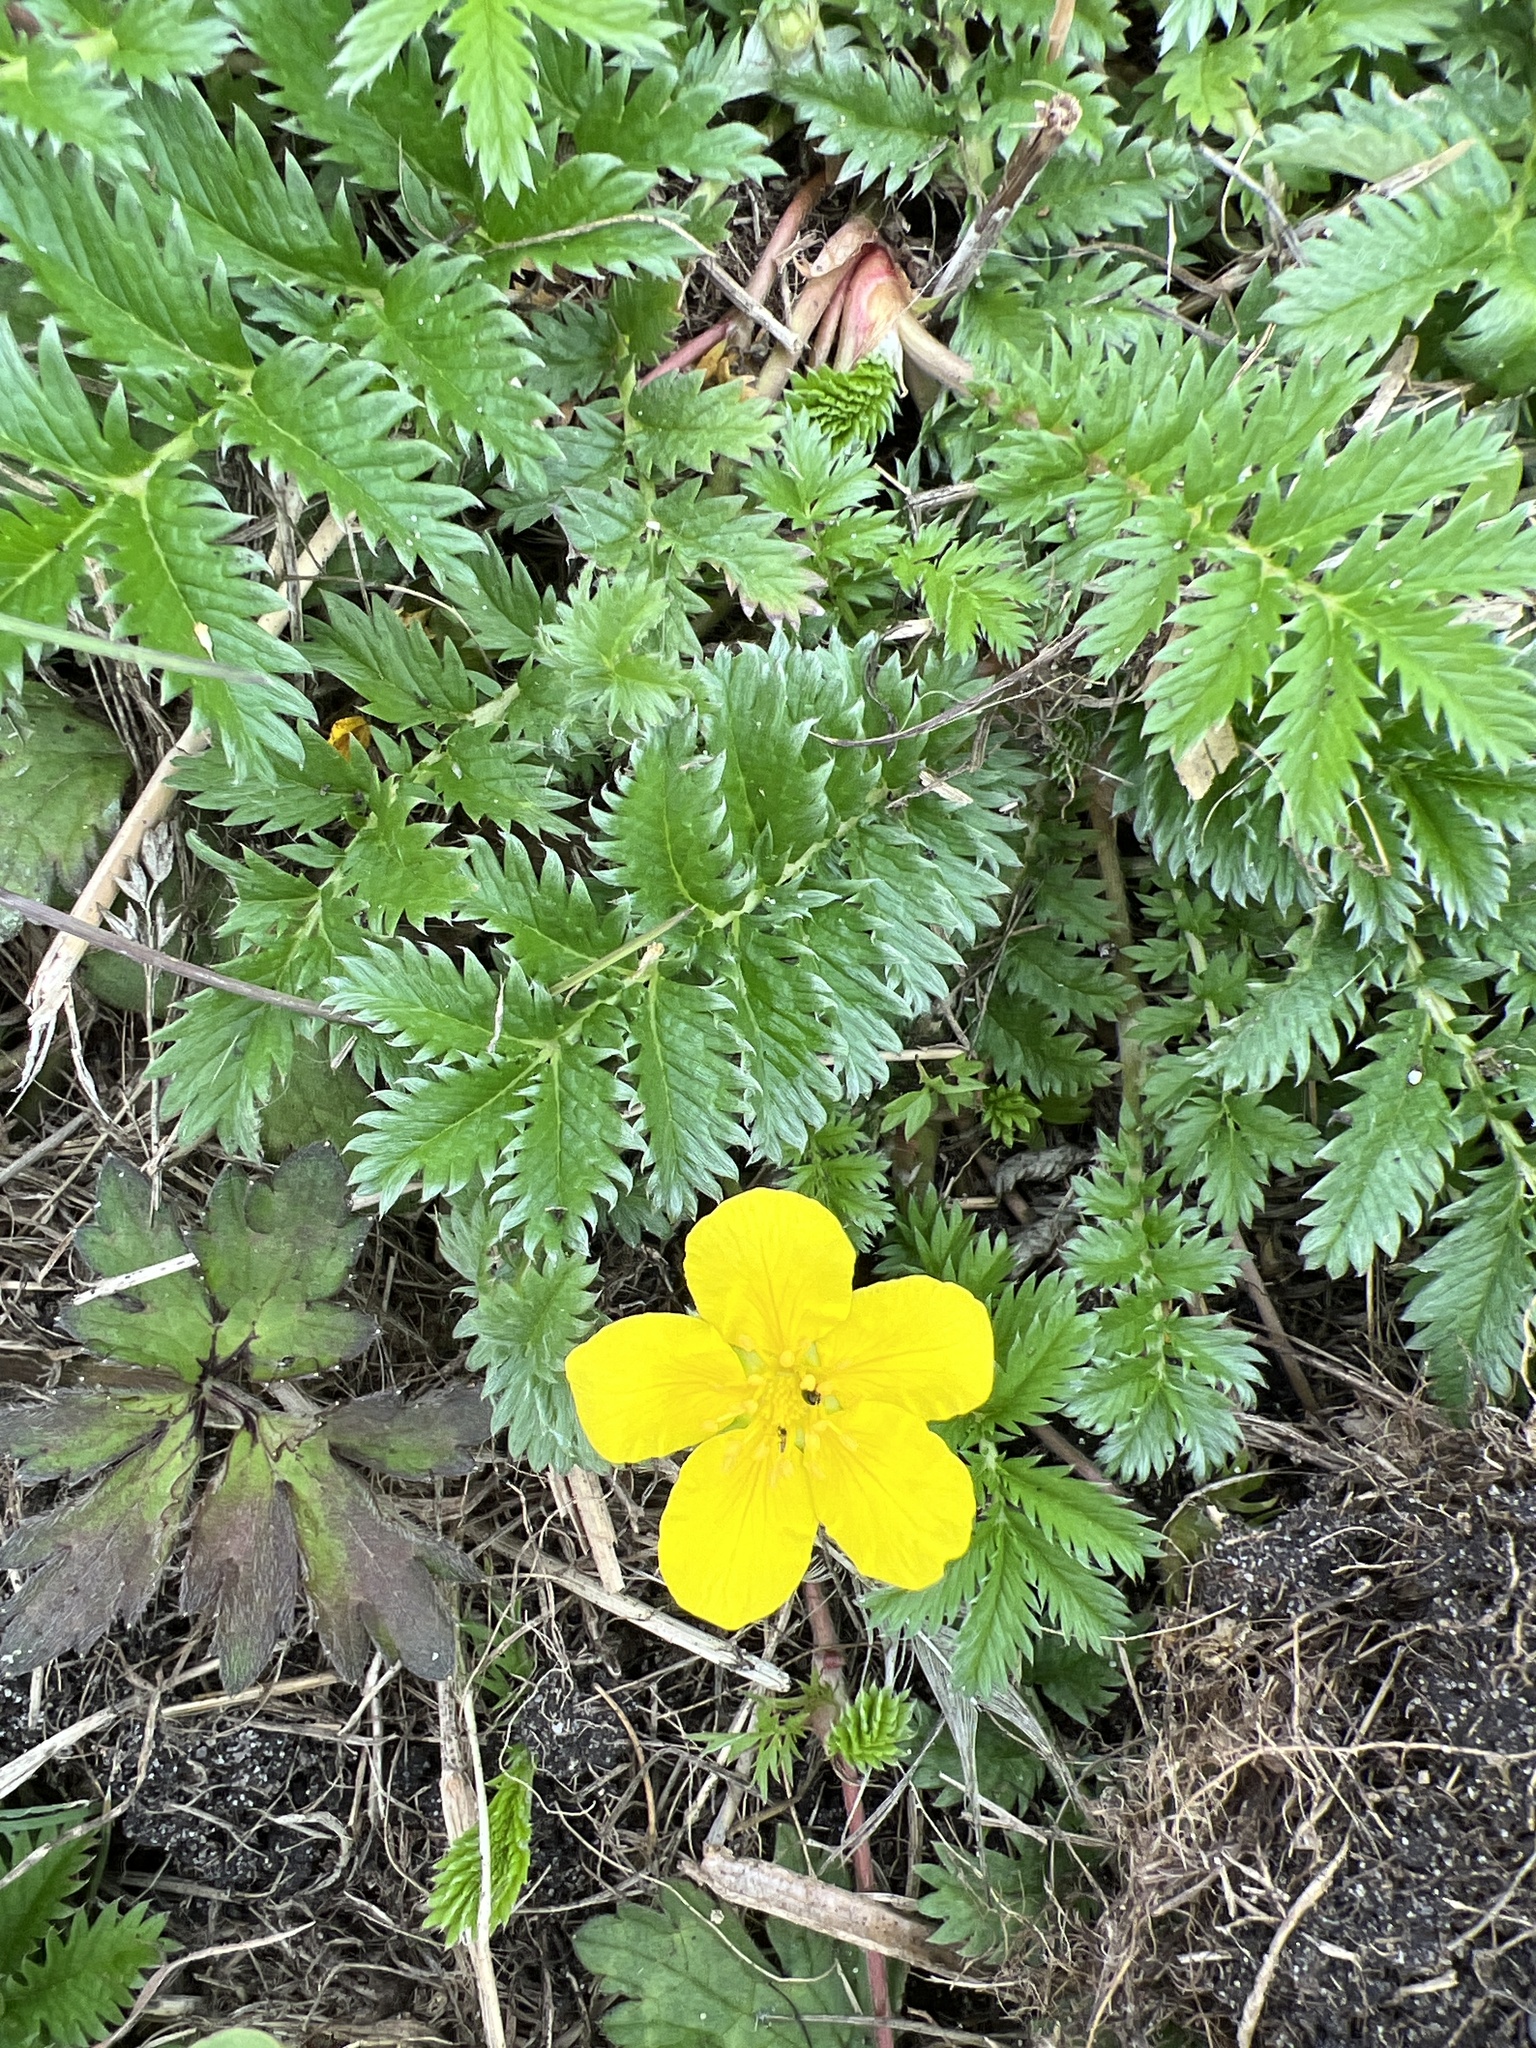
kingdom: Plantae
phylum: Tracheophyta
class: Magnoliopsida
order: Rosales
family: Rosaceae
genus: Argentina
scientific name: Argentina anserina
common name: Common silverweed
